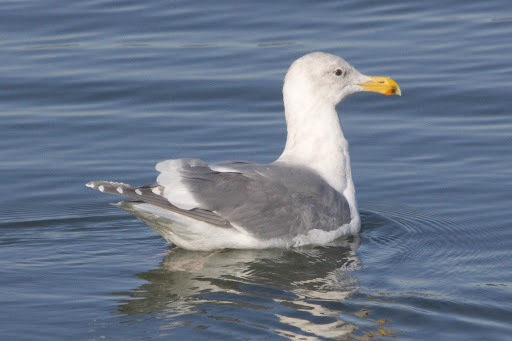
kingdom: Animalia
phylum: Chordata
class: Aves
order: Charadriiformes
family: Laridae
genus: Larus
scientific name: Larus glaucescens
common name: Glaucous-winged gull
